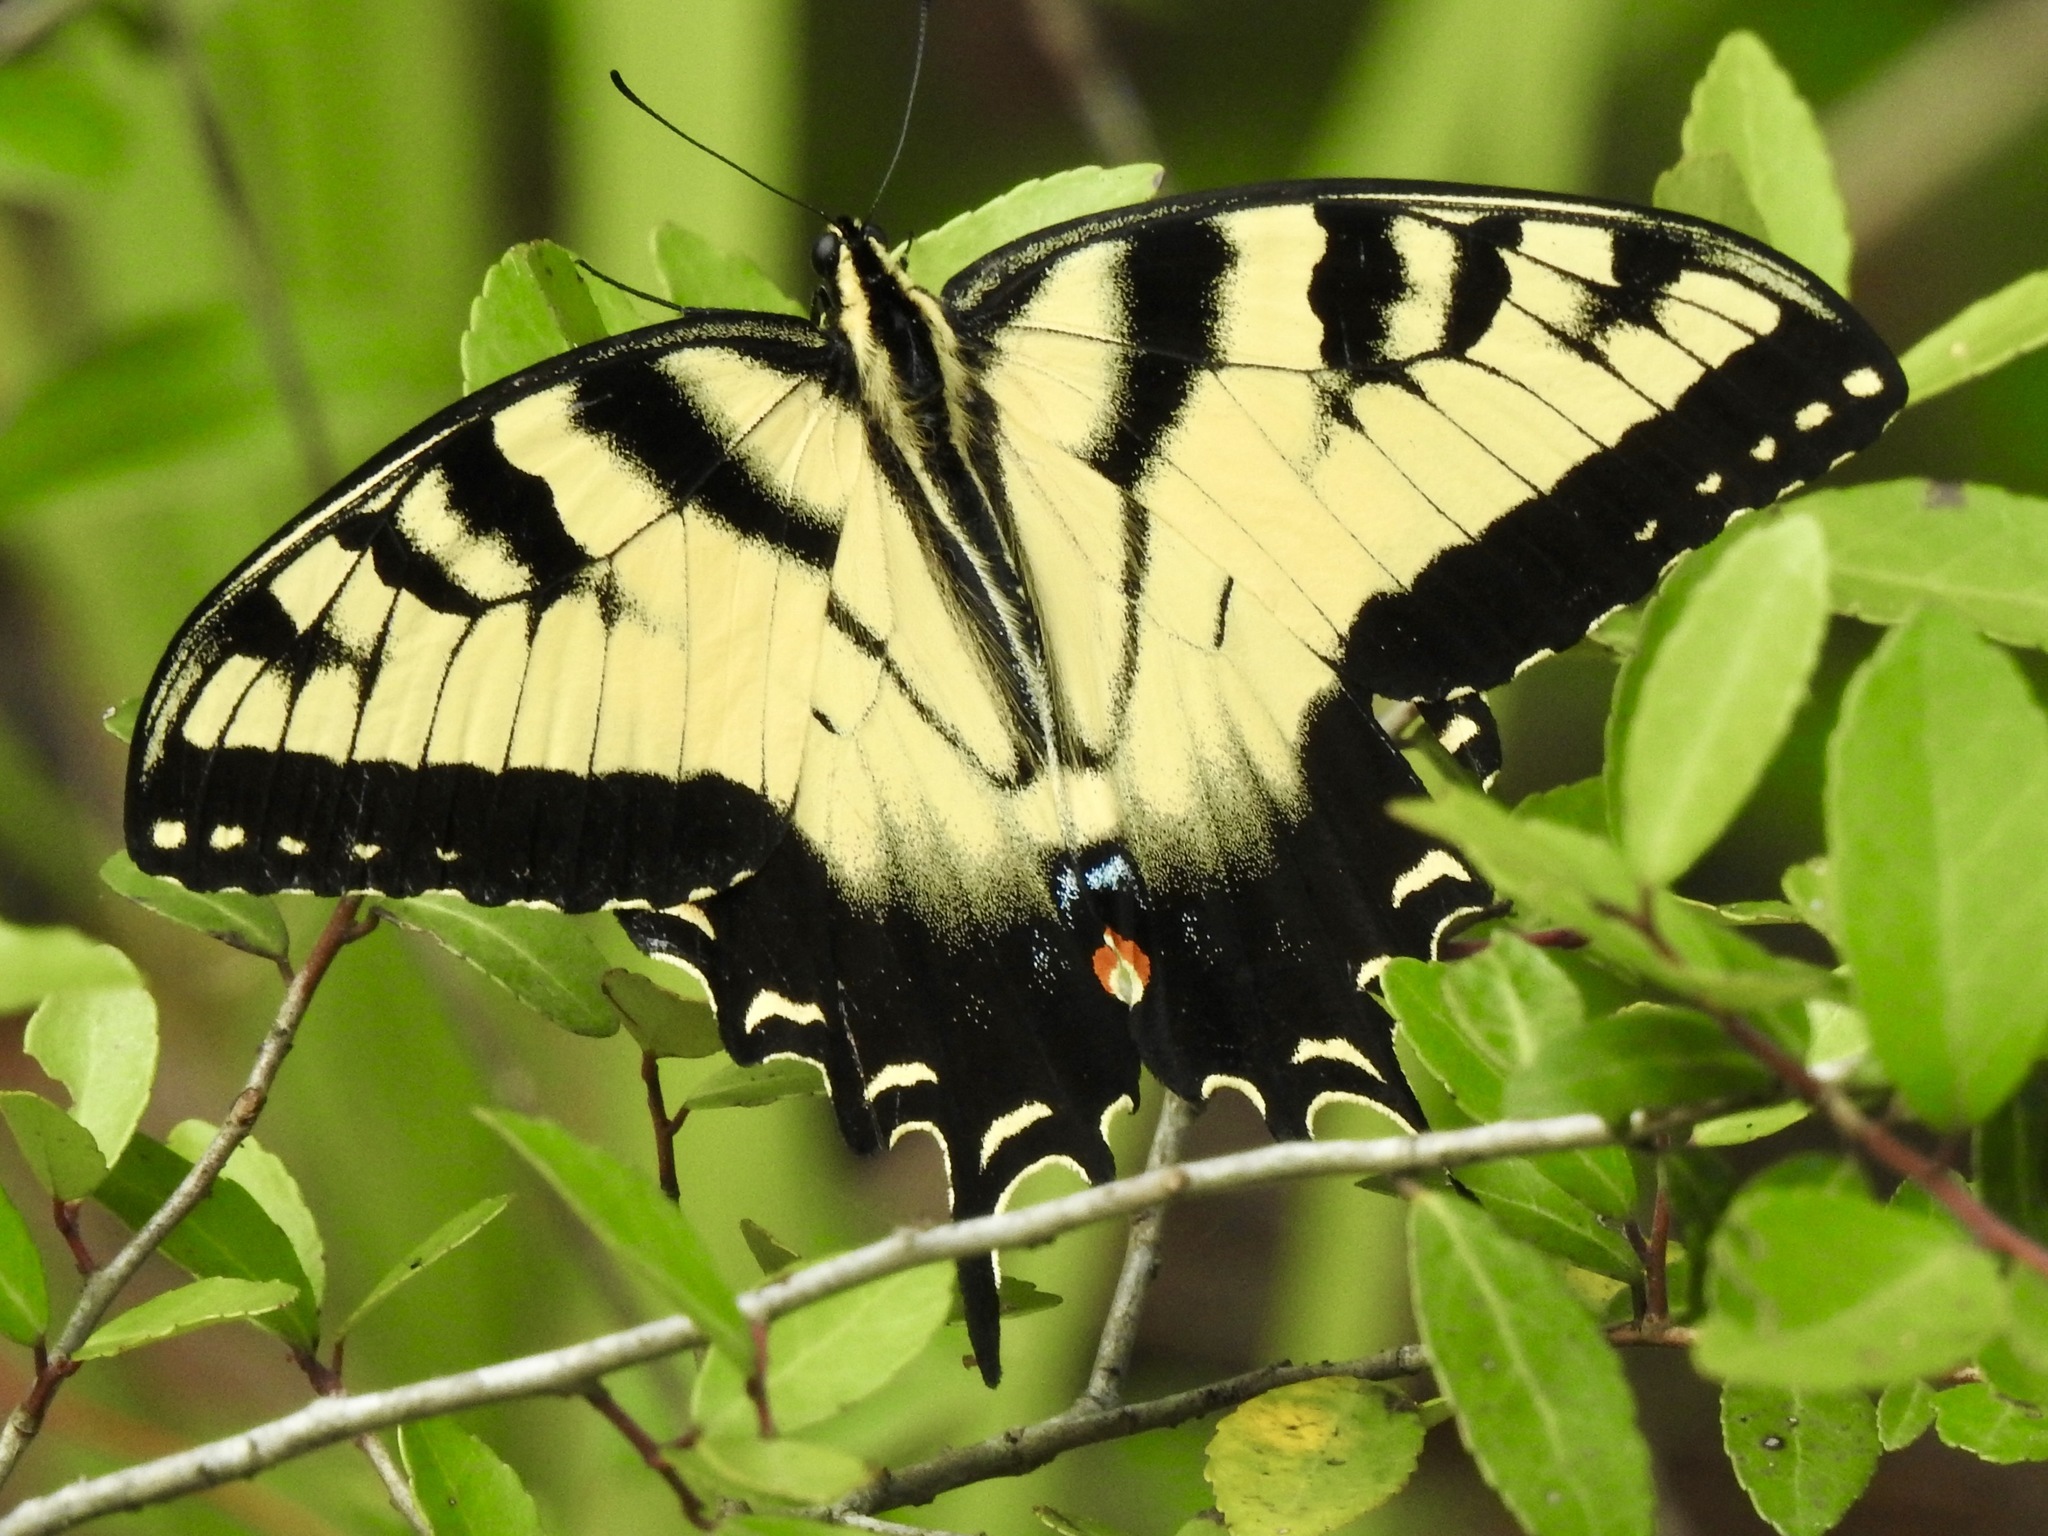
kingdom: Animalia
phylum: Arthropoda
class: Insecta
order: Lepidoptera
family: Papilionidae
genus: Papilio
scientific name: Papilio glaucus
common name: Tiger swallowtail
